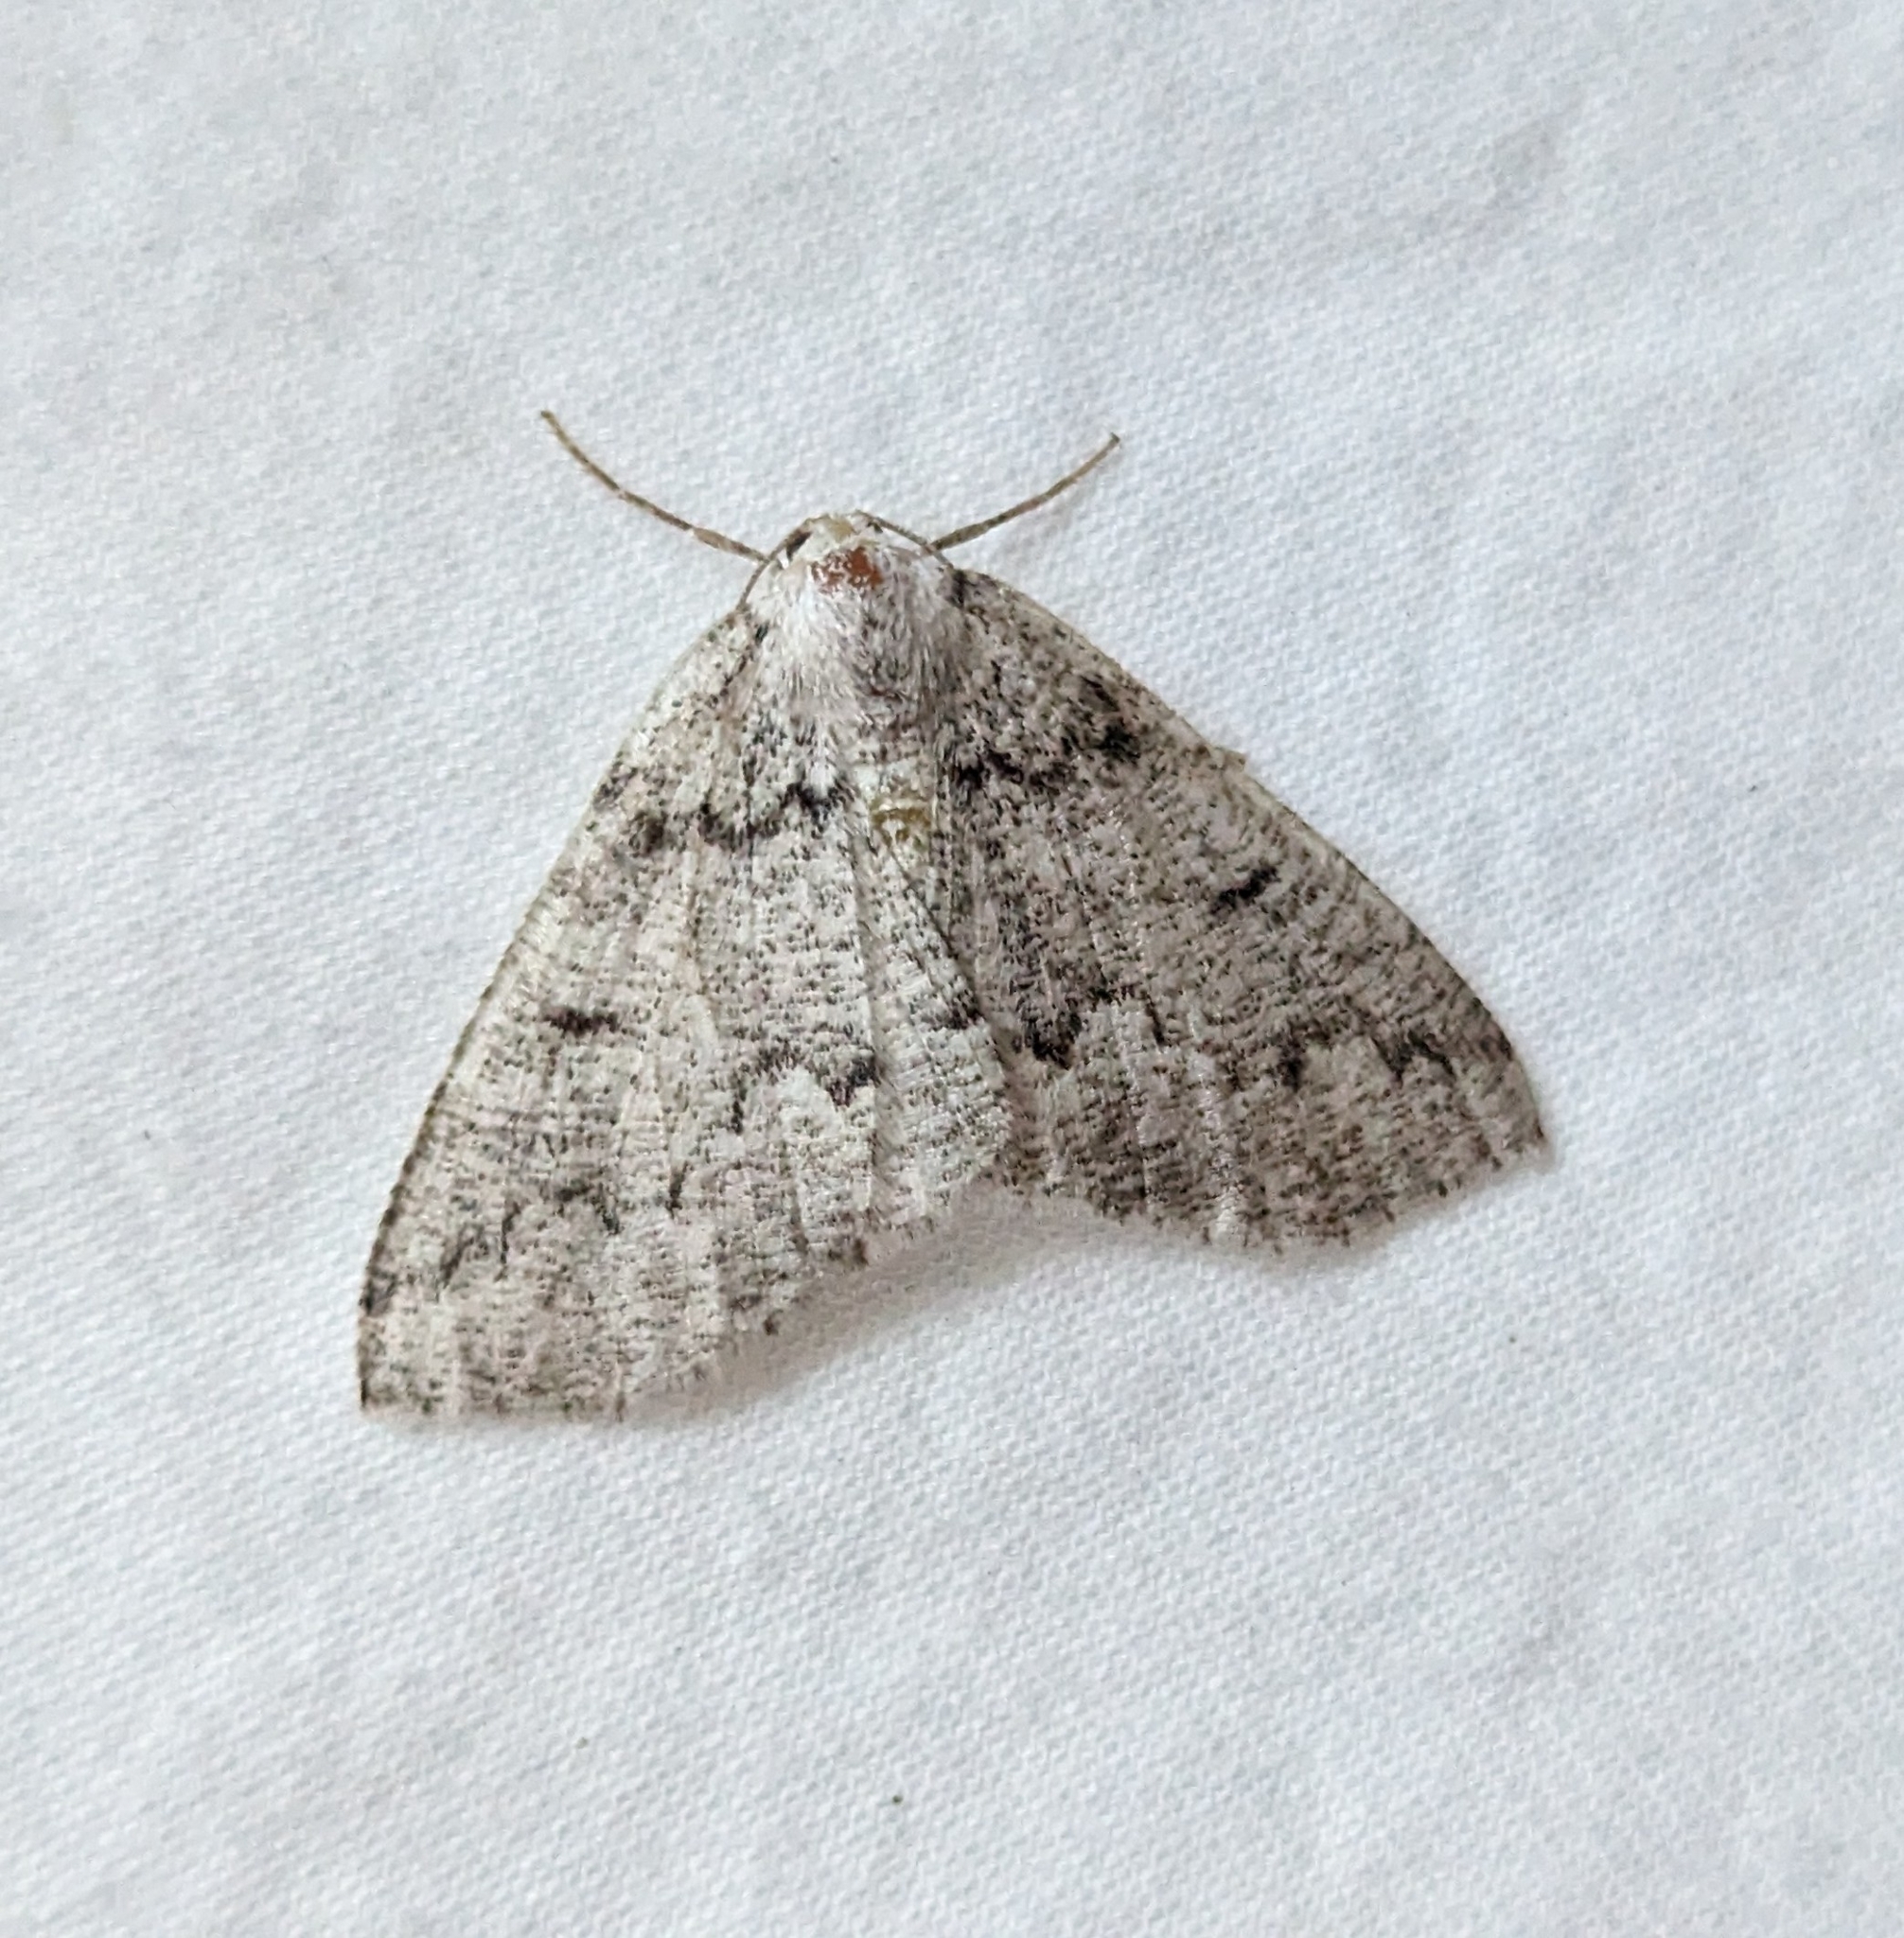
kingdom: Animalia
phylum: Arthropoda
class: Insecta
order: Lepidoptera
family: Geometridae
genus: Sabulodes
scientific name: Sabulodes
